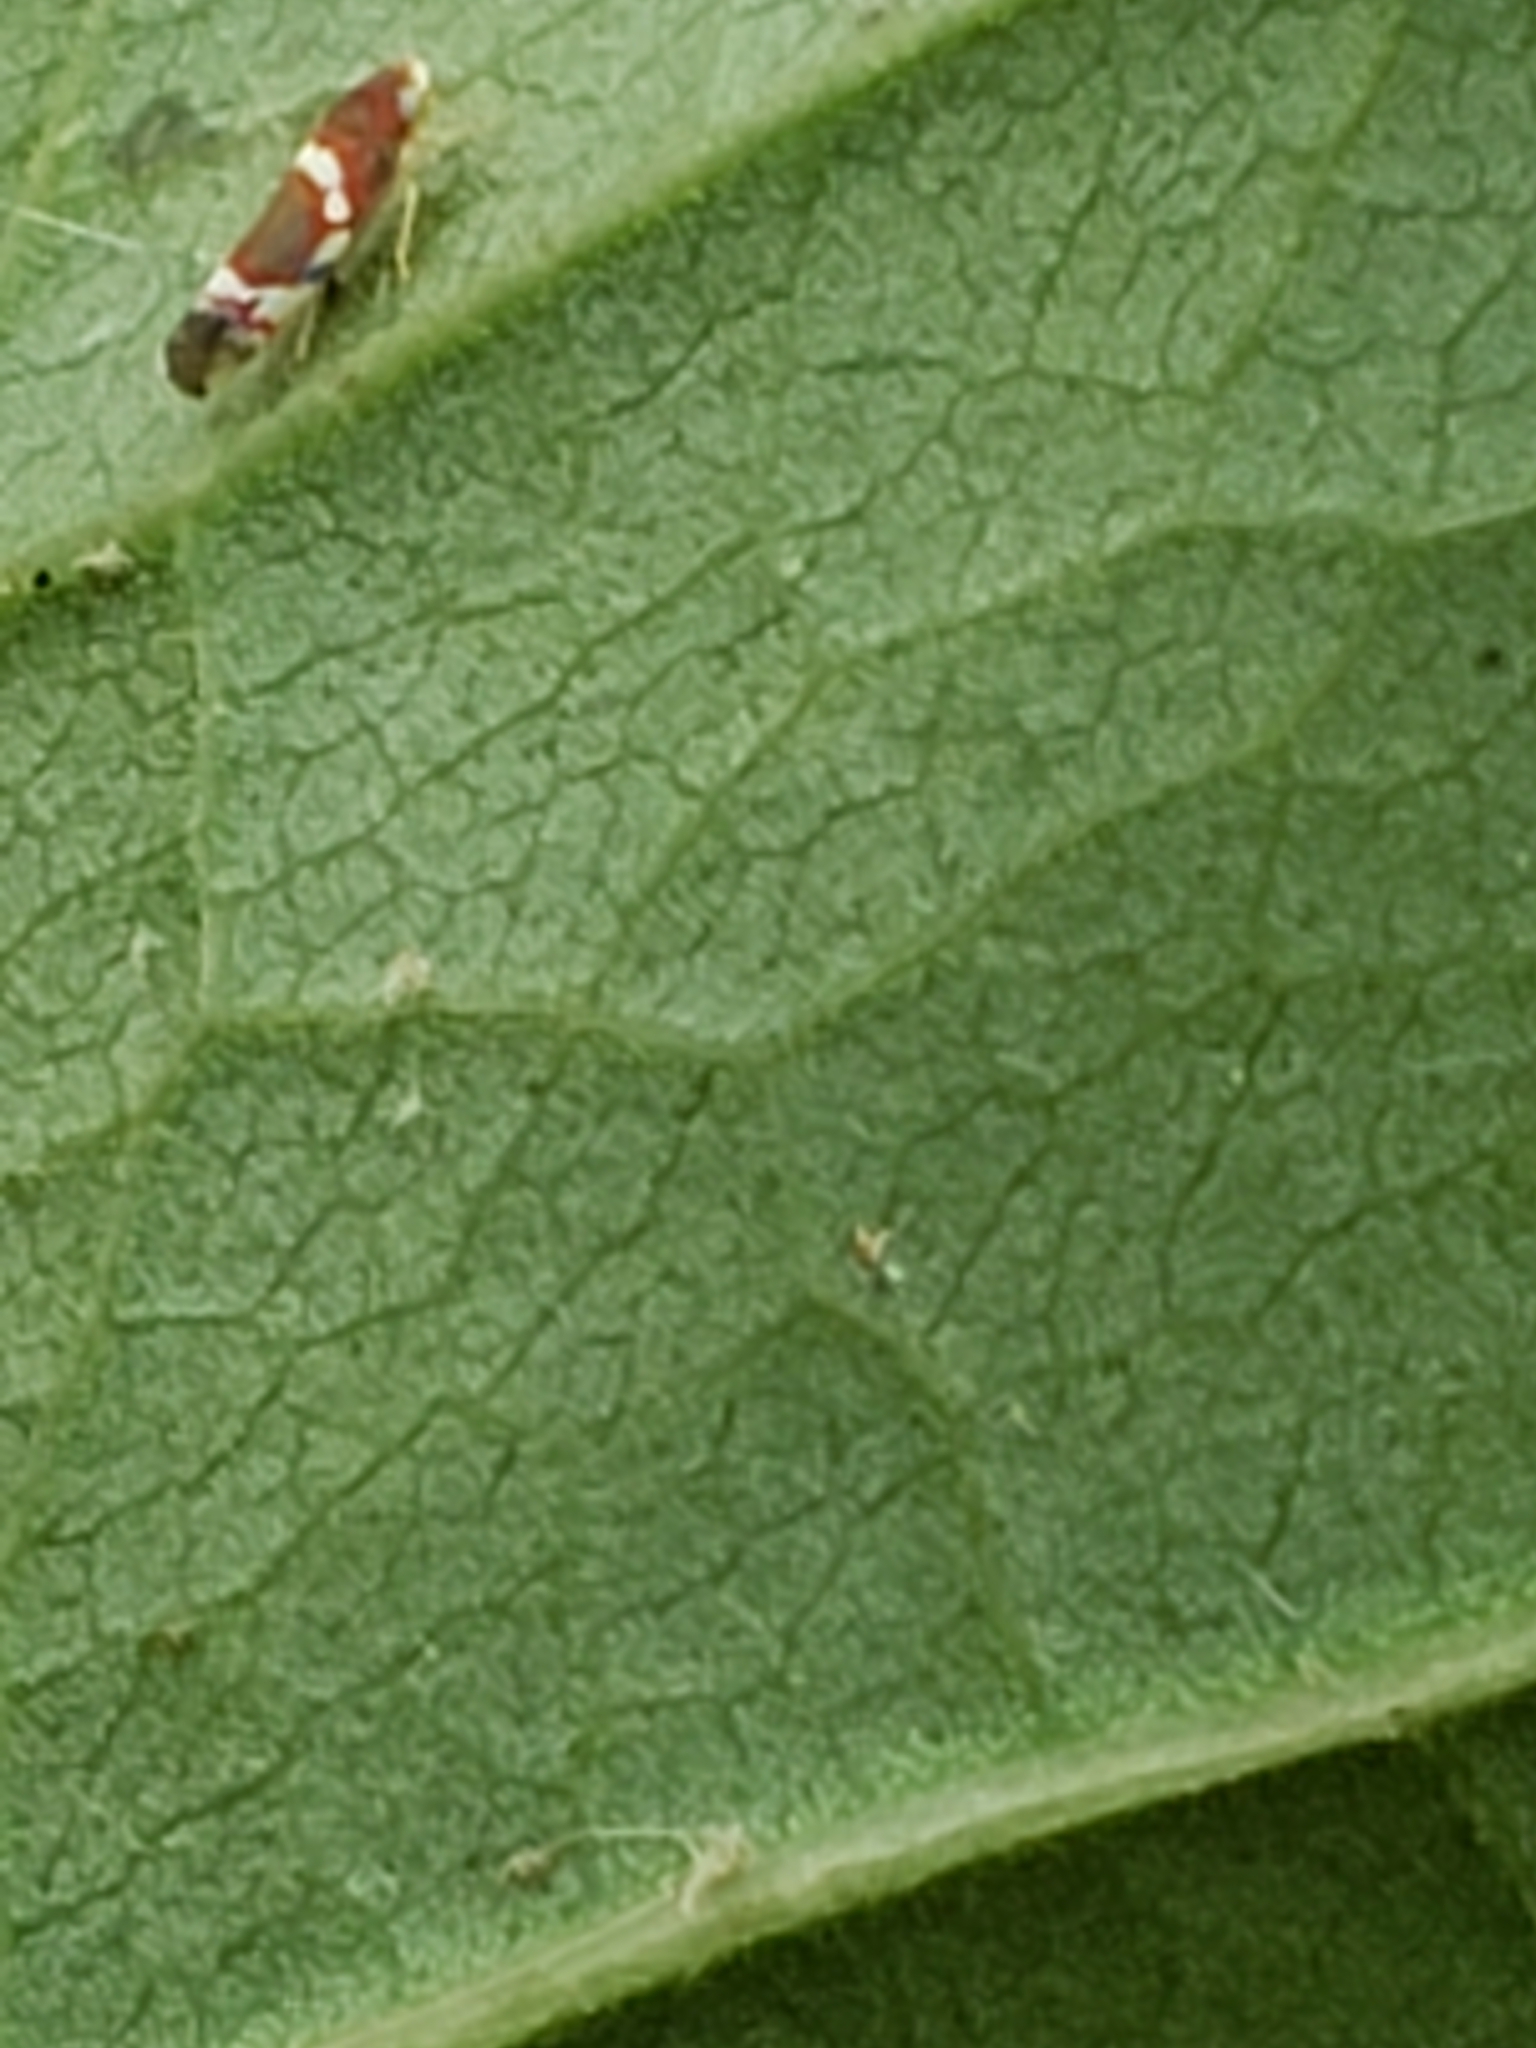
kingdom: Animalia
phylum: Arthropoda
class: Insecta
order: Hemiptera
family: Cicadellidae
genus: Erythroneura
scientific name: Erythroneura vitis
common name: Grapevine leafhopper
